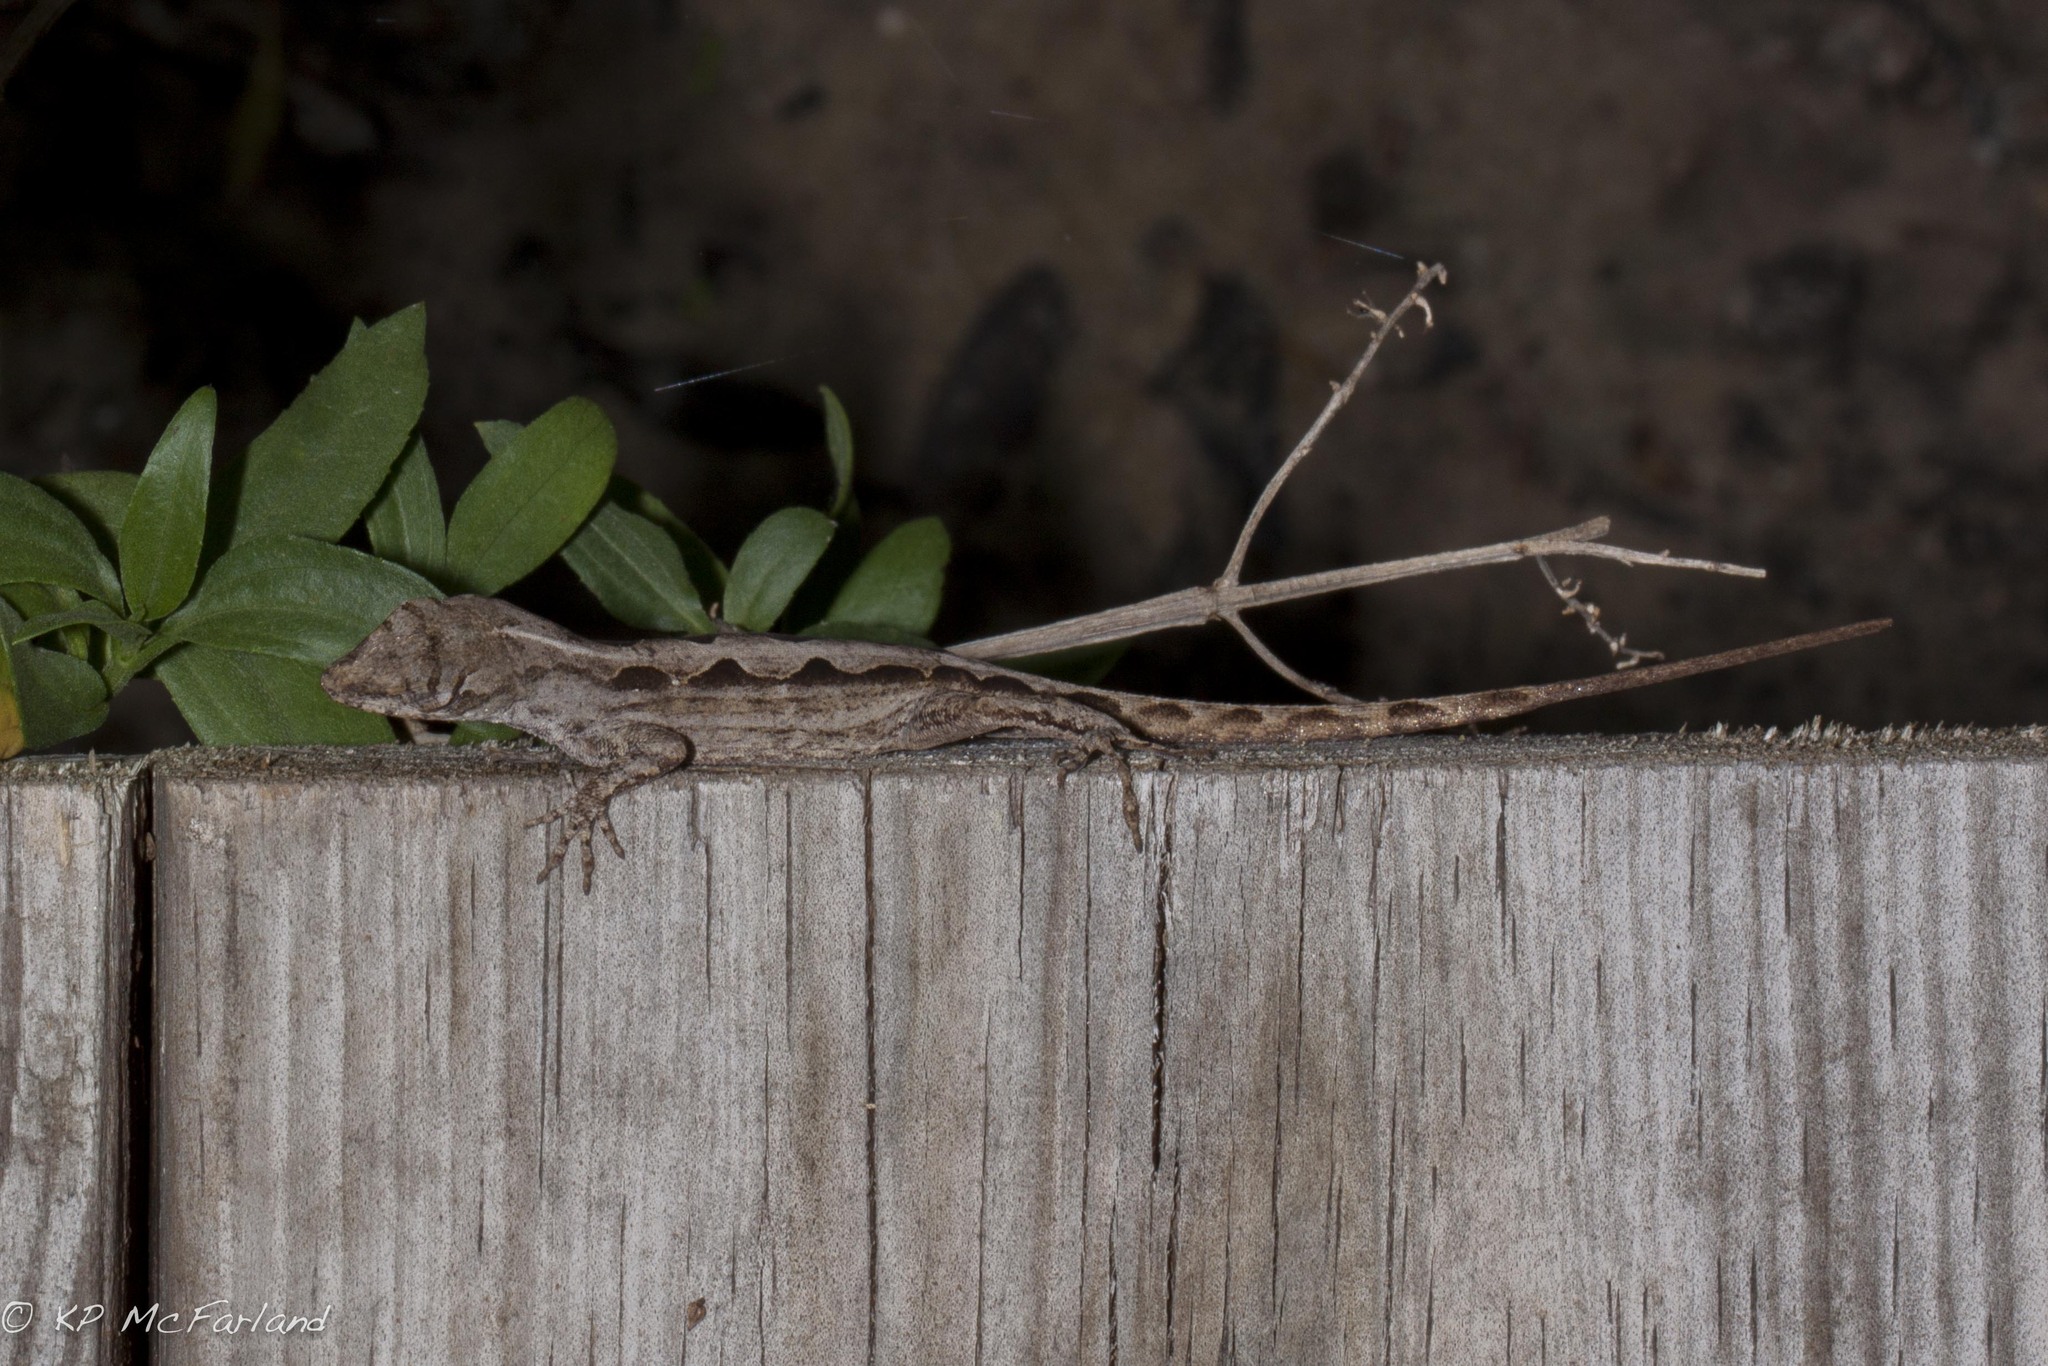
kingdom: Animalia
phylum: Chordata
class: Squamata
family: Dactyloidae
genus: Anolis
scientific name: Anolis sagrei
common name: Brown anole
